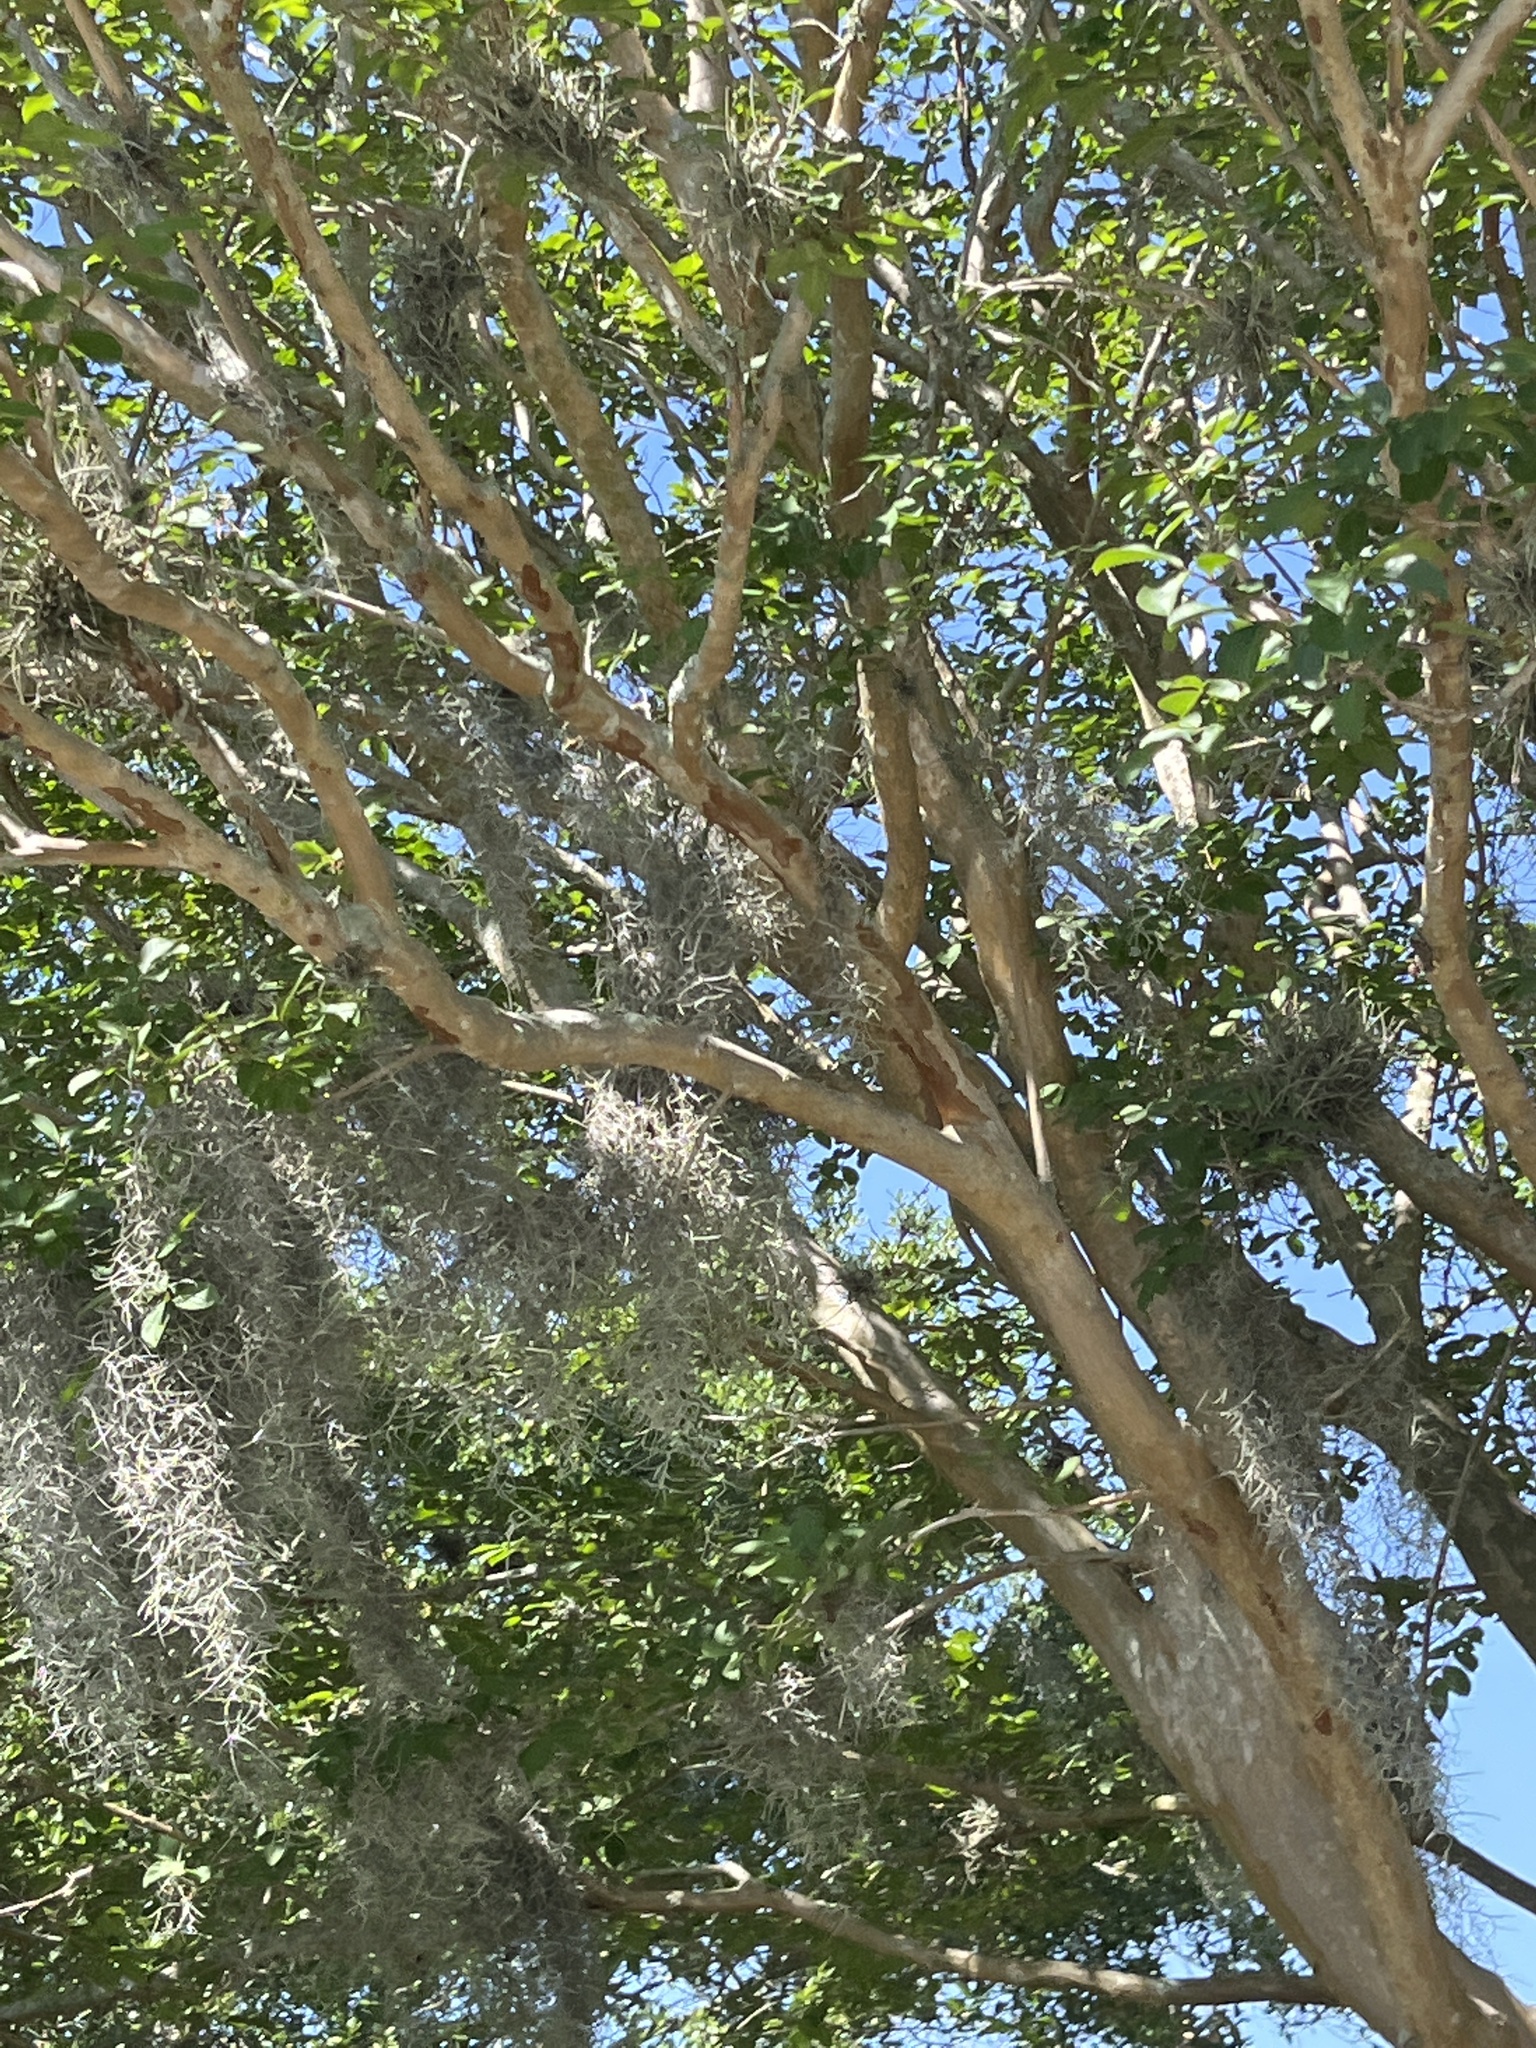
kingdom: Plantae
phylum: Tracheophyta
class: Liliopsida
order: Poales
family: Bromeliaceae
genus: Tillandsia
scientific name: Tillandsia usneoides
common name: Spanish moss
